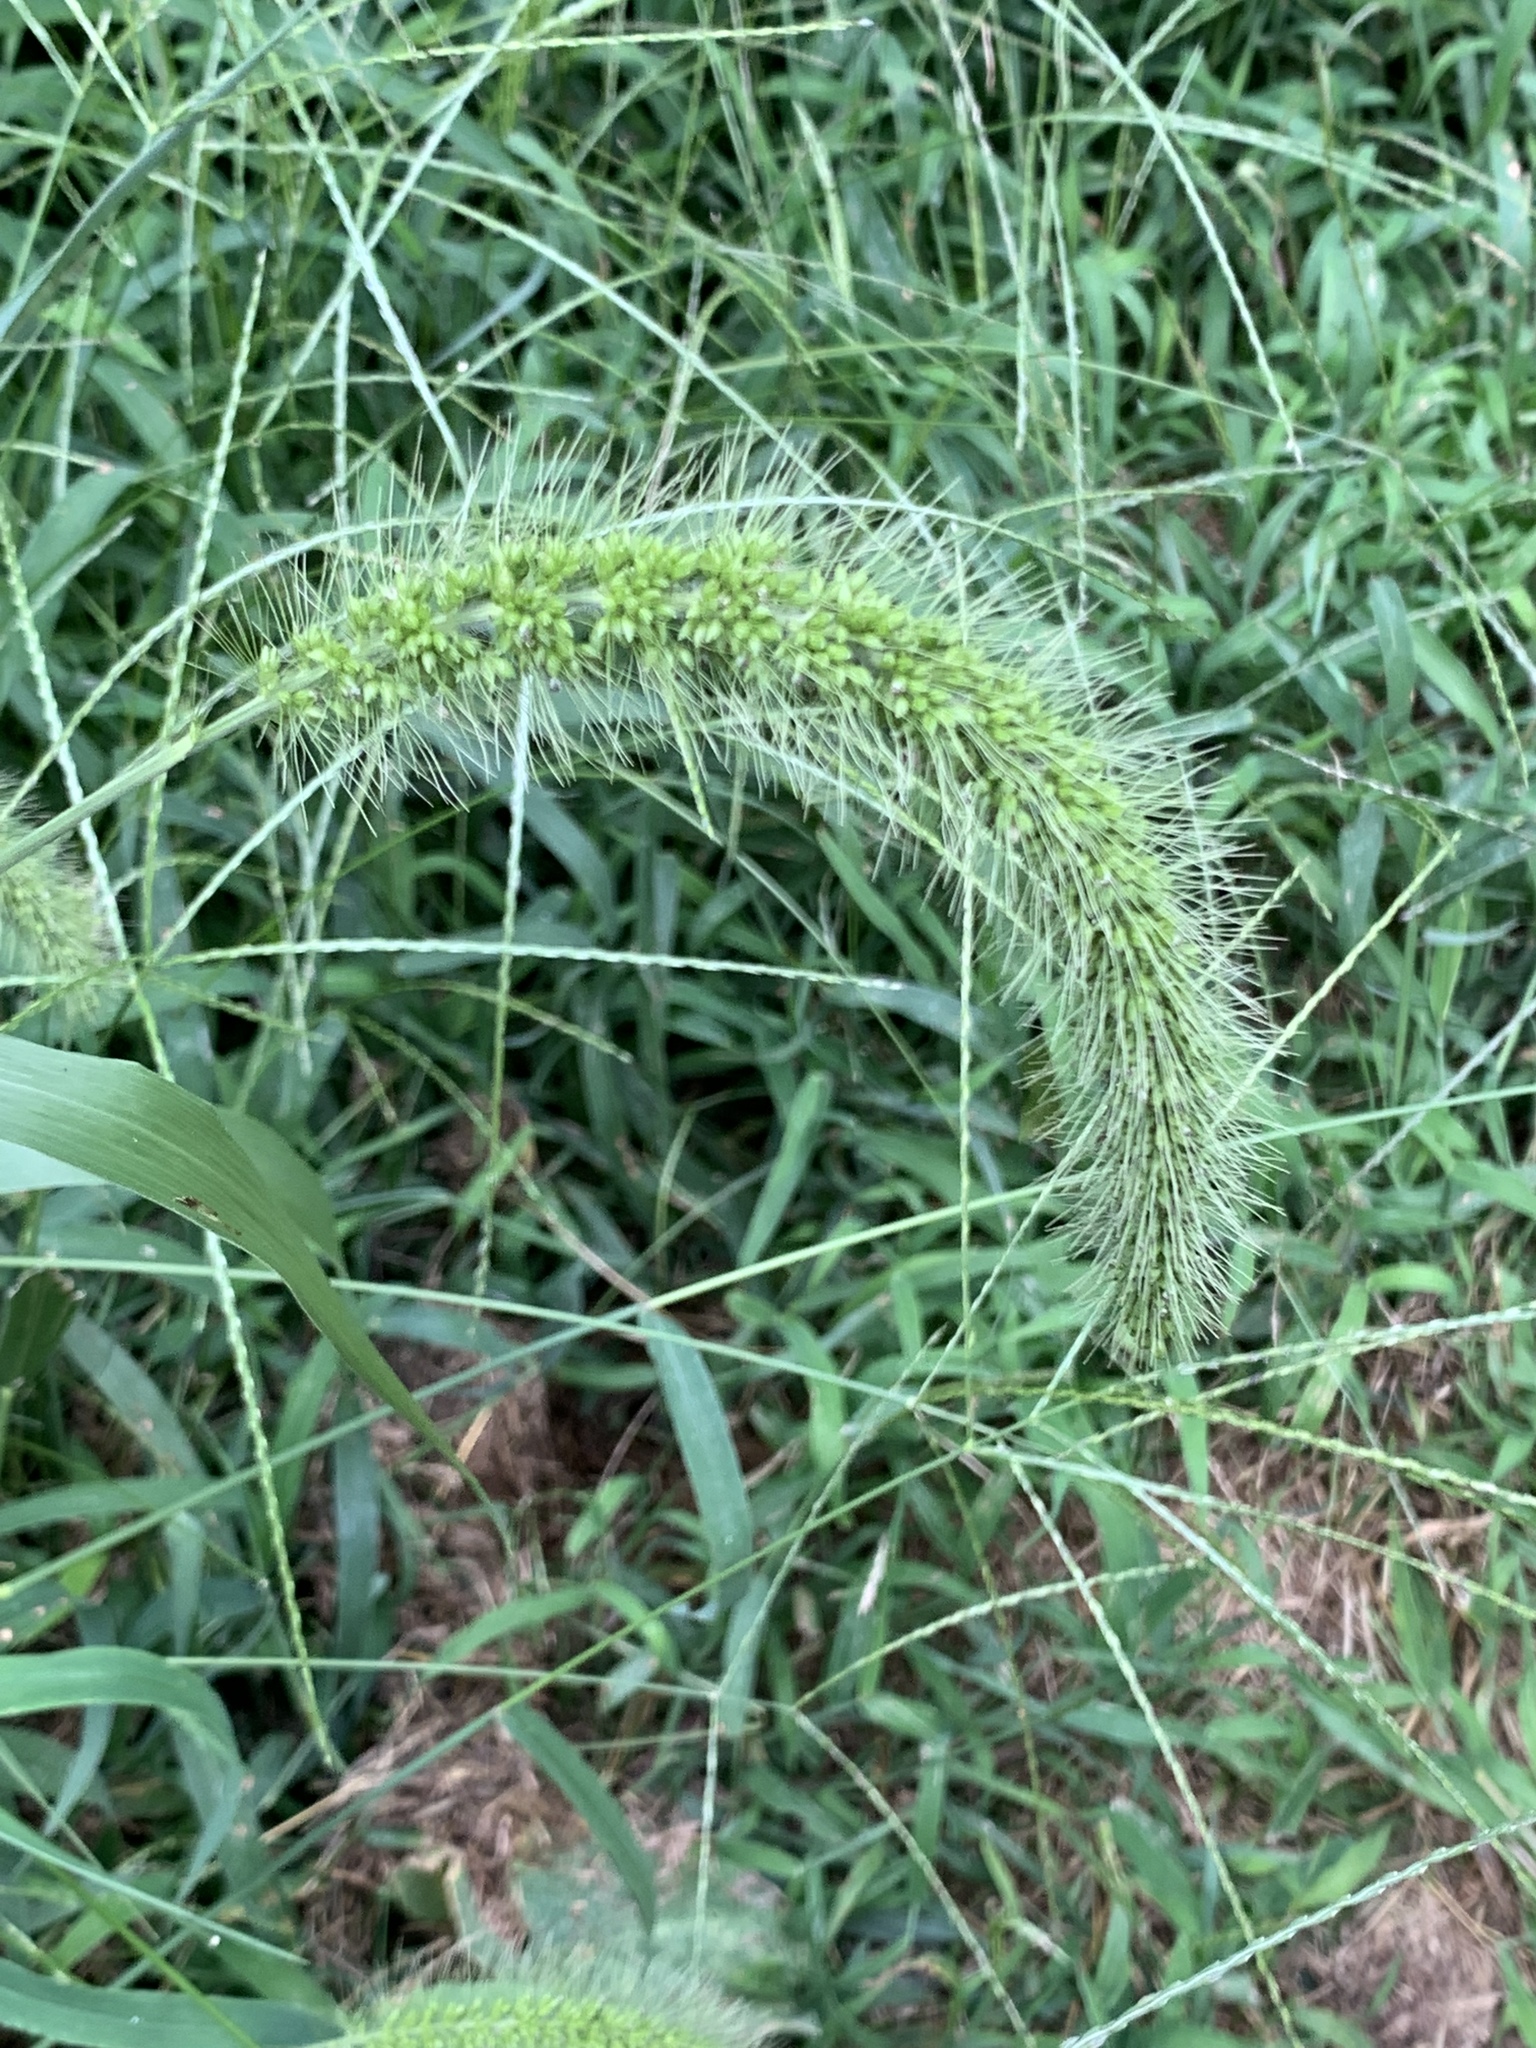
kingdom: Plantae
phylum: Tracheophyta
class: Liliopsida
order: Poales
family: Poaceae
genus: Setaria
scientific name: Setaria faberi
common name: Nodding bristle-grass
